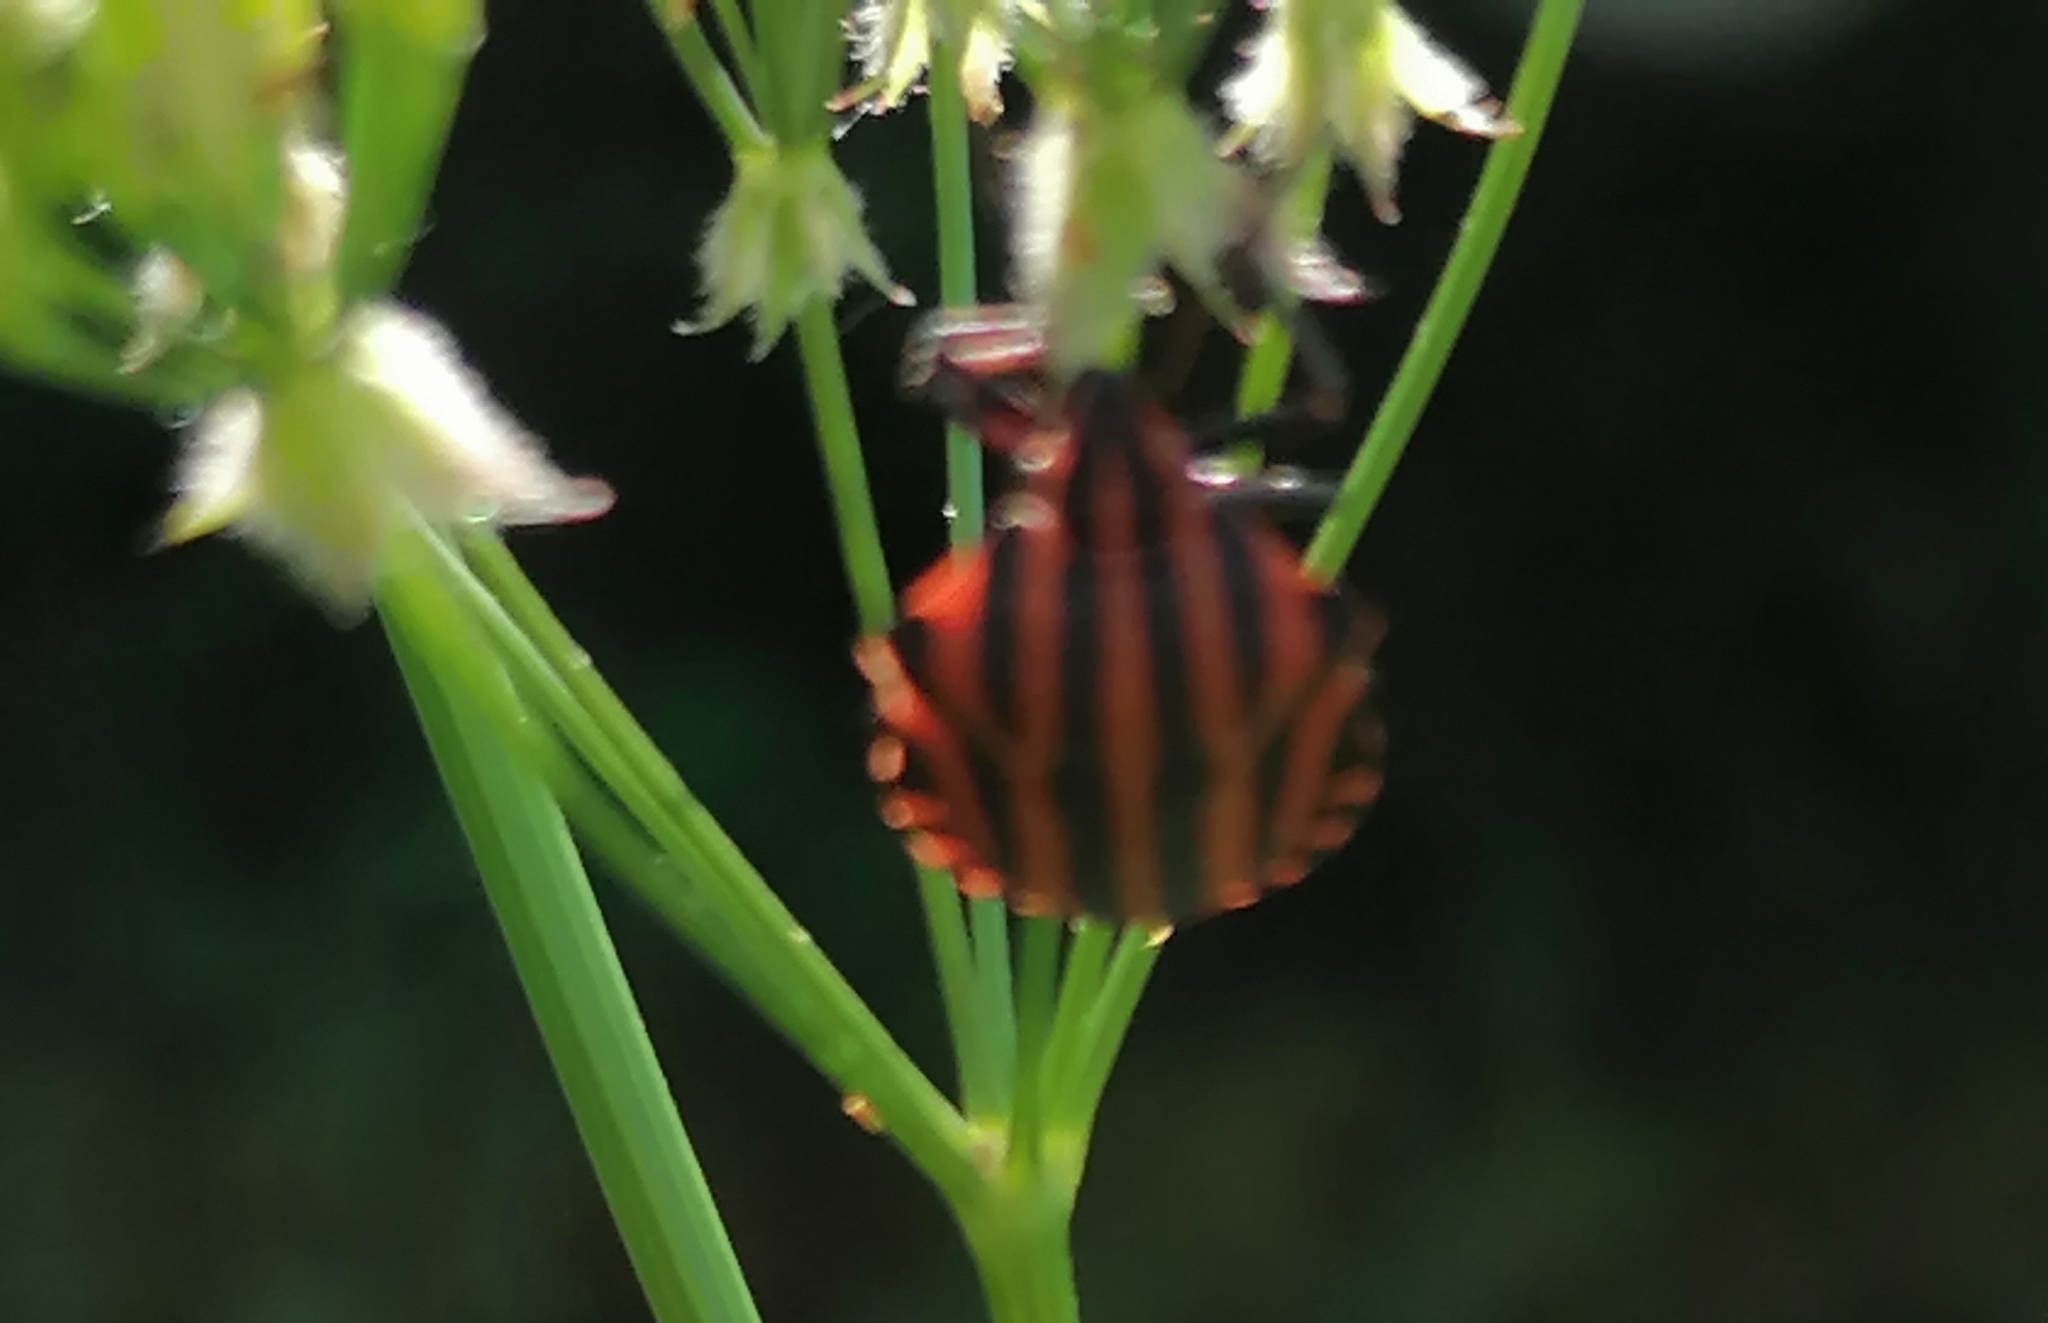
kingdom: Animalia
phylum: Arthropoda
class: Insecta
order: Hemiptera
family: Pentatomidae
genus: Graphosoma
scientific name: Graphosoma italicum
